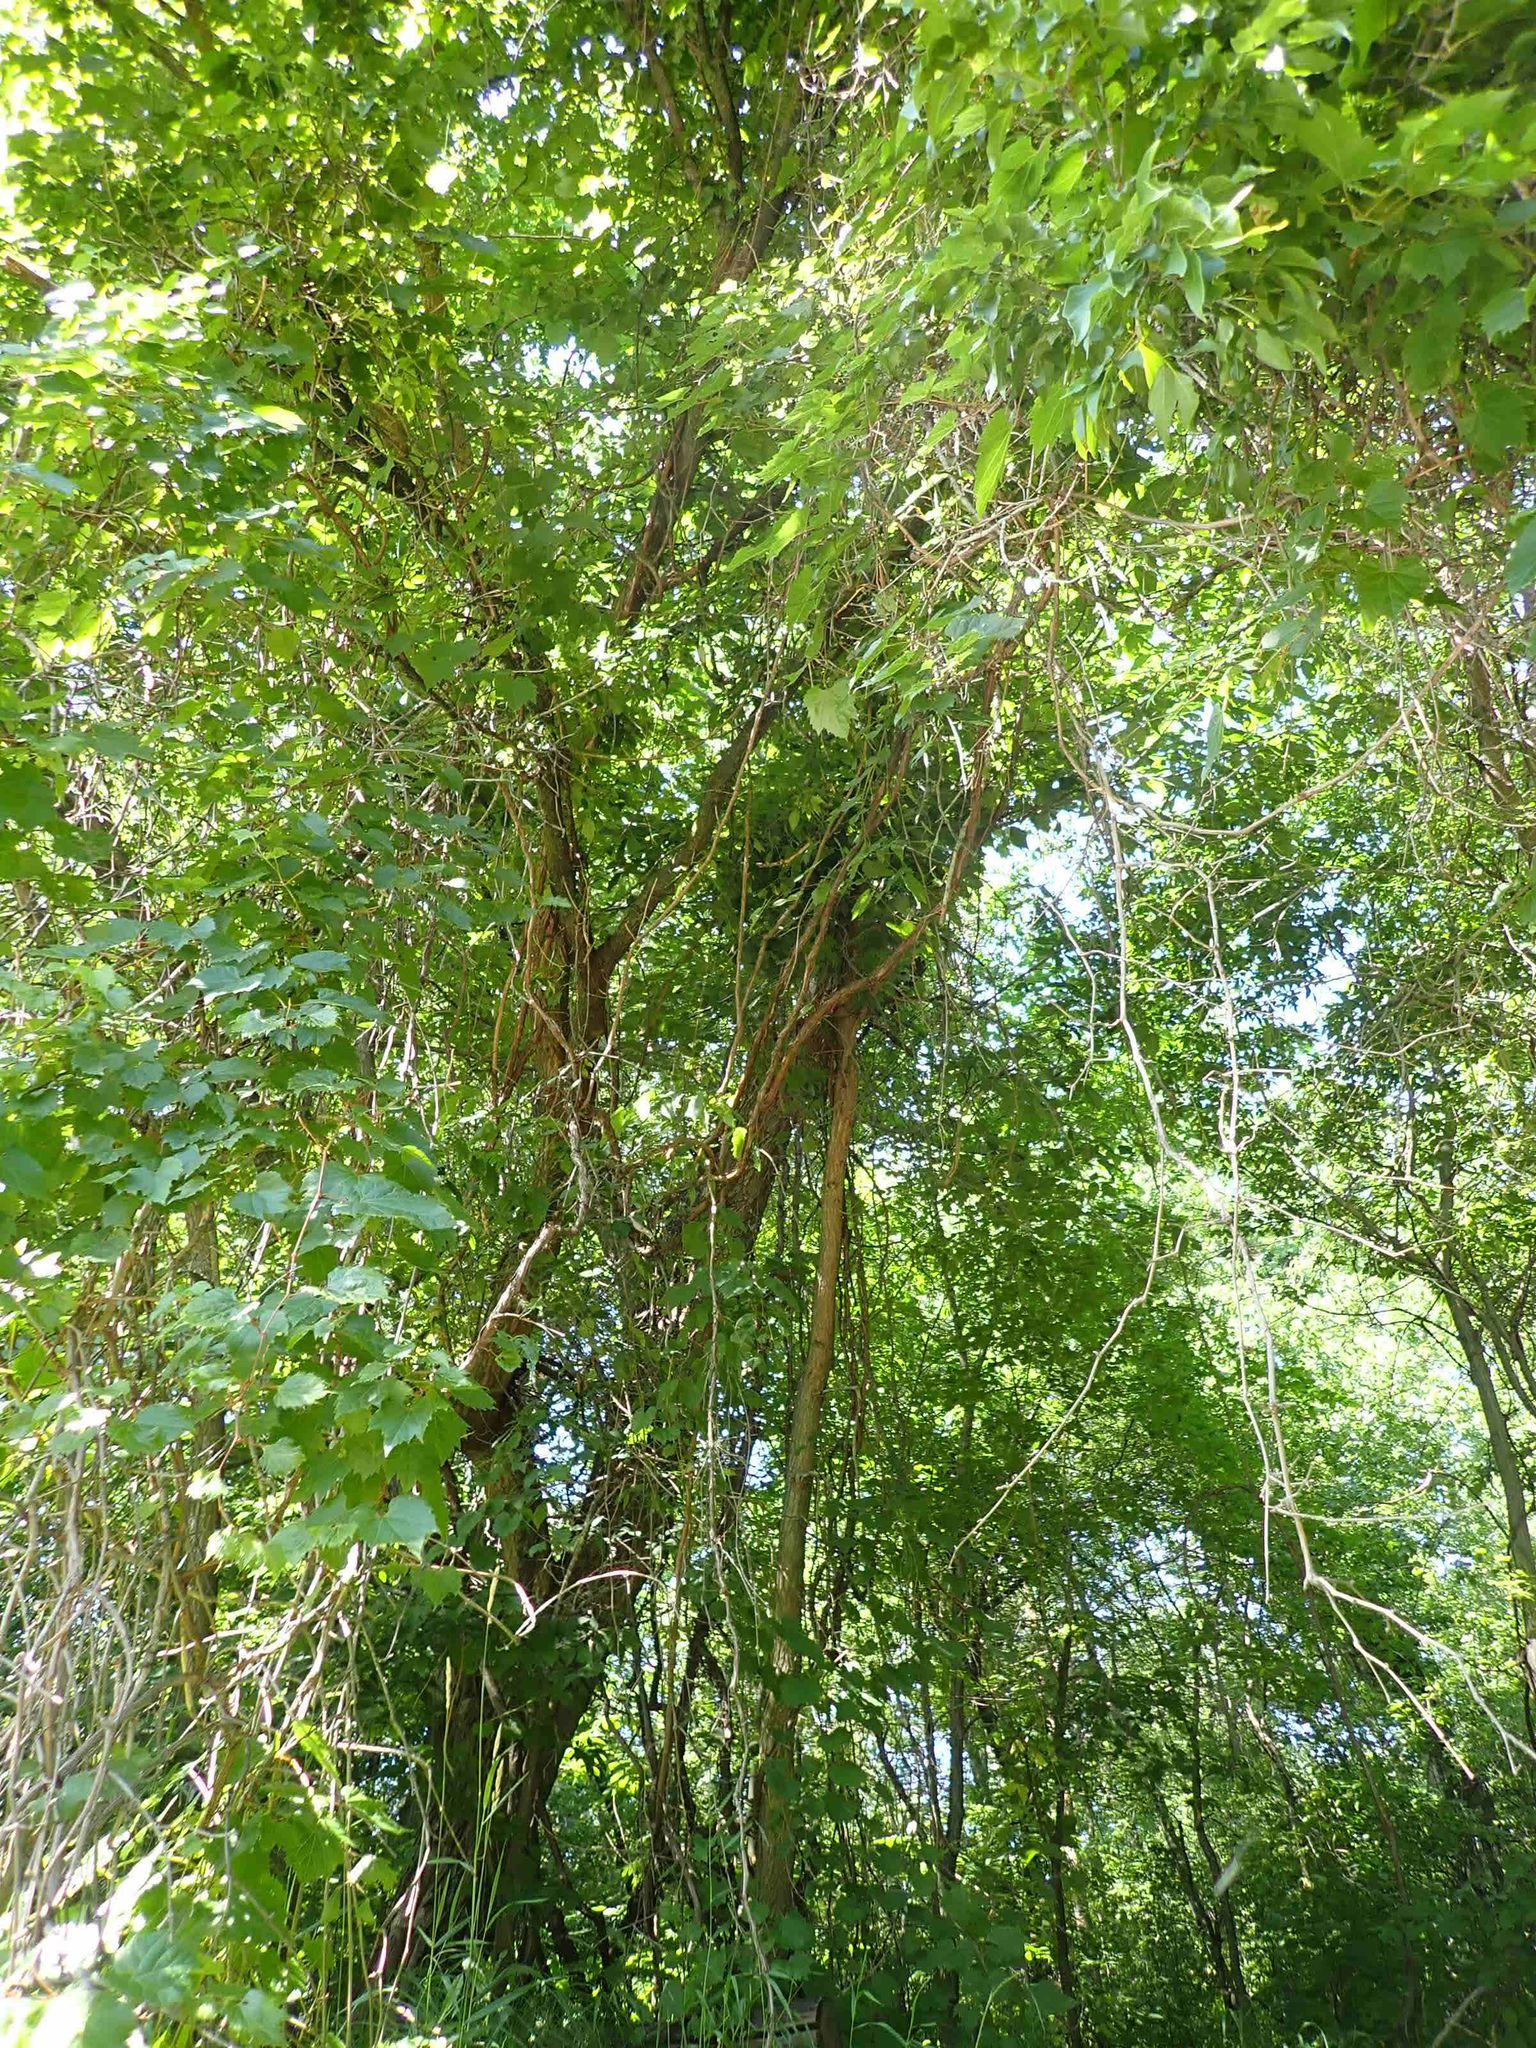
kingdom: Plantae
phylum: Tracheophyta
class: Magnoliopsida
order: Vitales
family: Vitaceae
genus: Vitis
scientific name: Vitis riparia
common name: Frost grape
